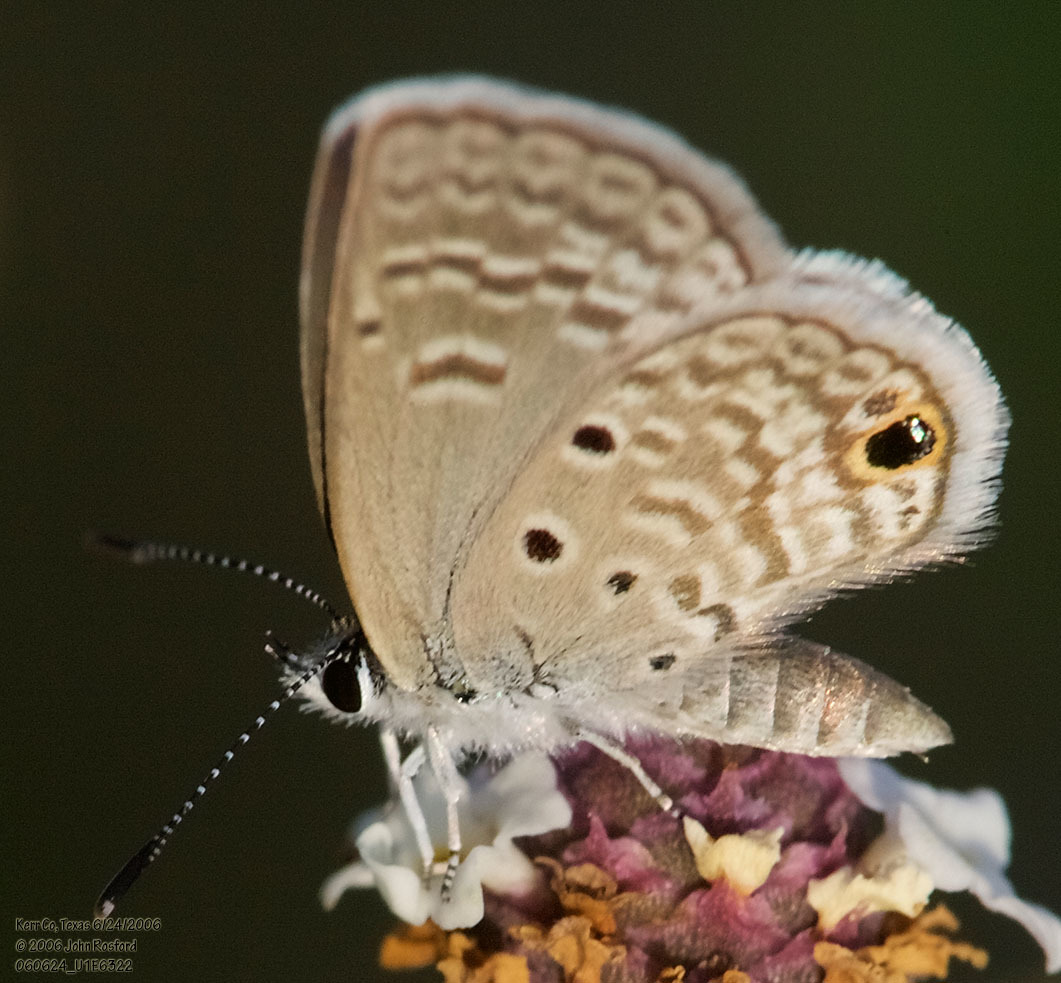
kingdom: Animalia
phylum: Arthropoda
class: Insecta
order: Lepidoptera
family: Lycaenidae
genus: Hemiargus
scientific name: Hemiargus ceraunus
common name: Ceraunus blue
